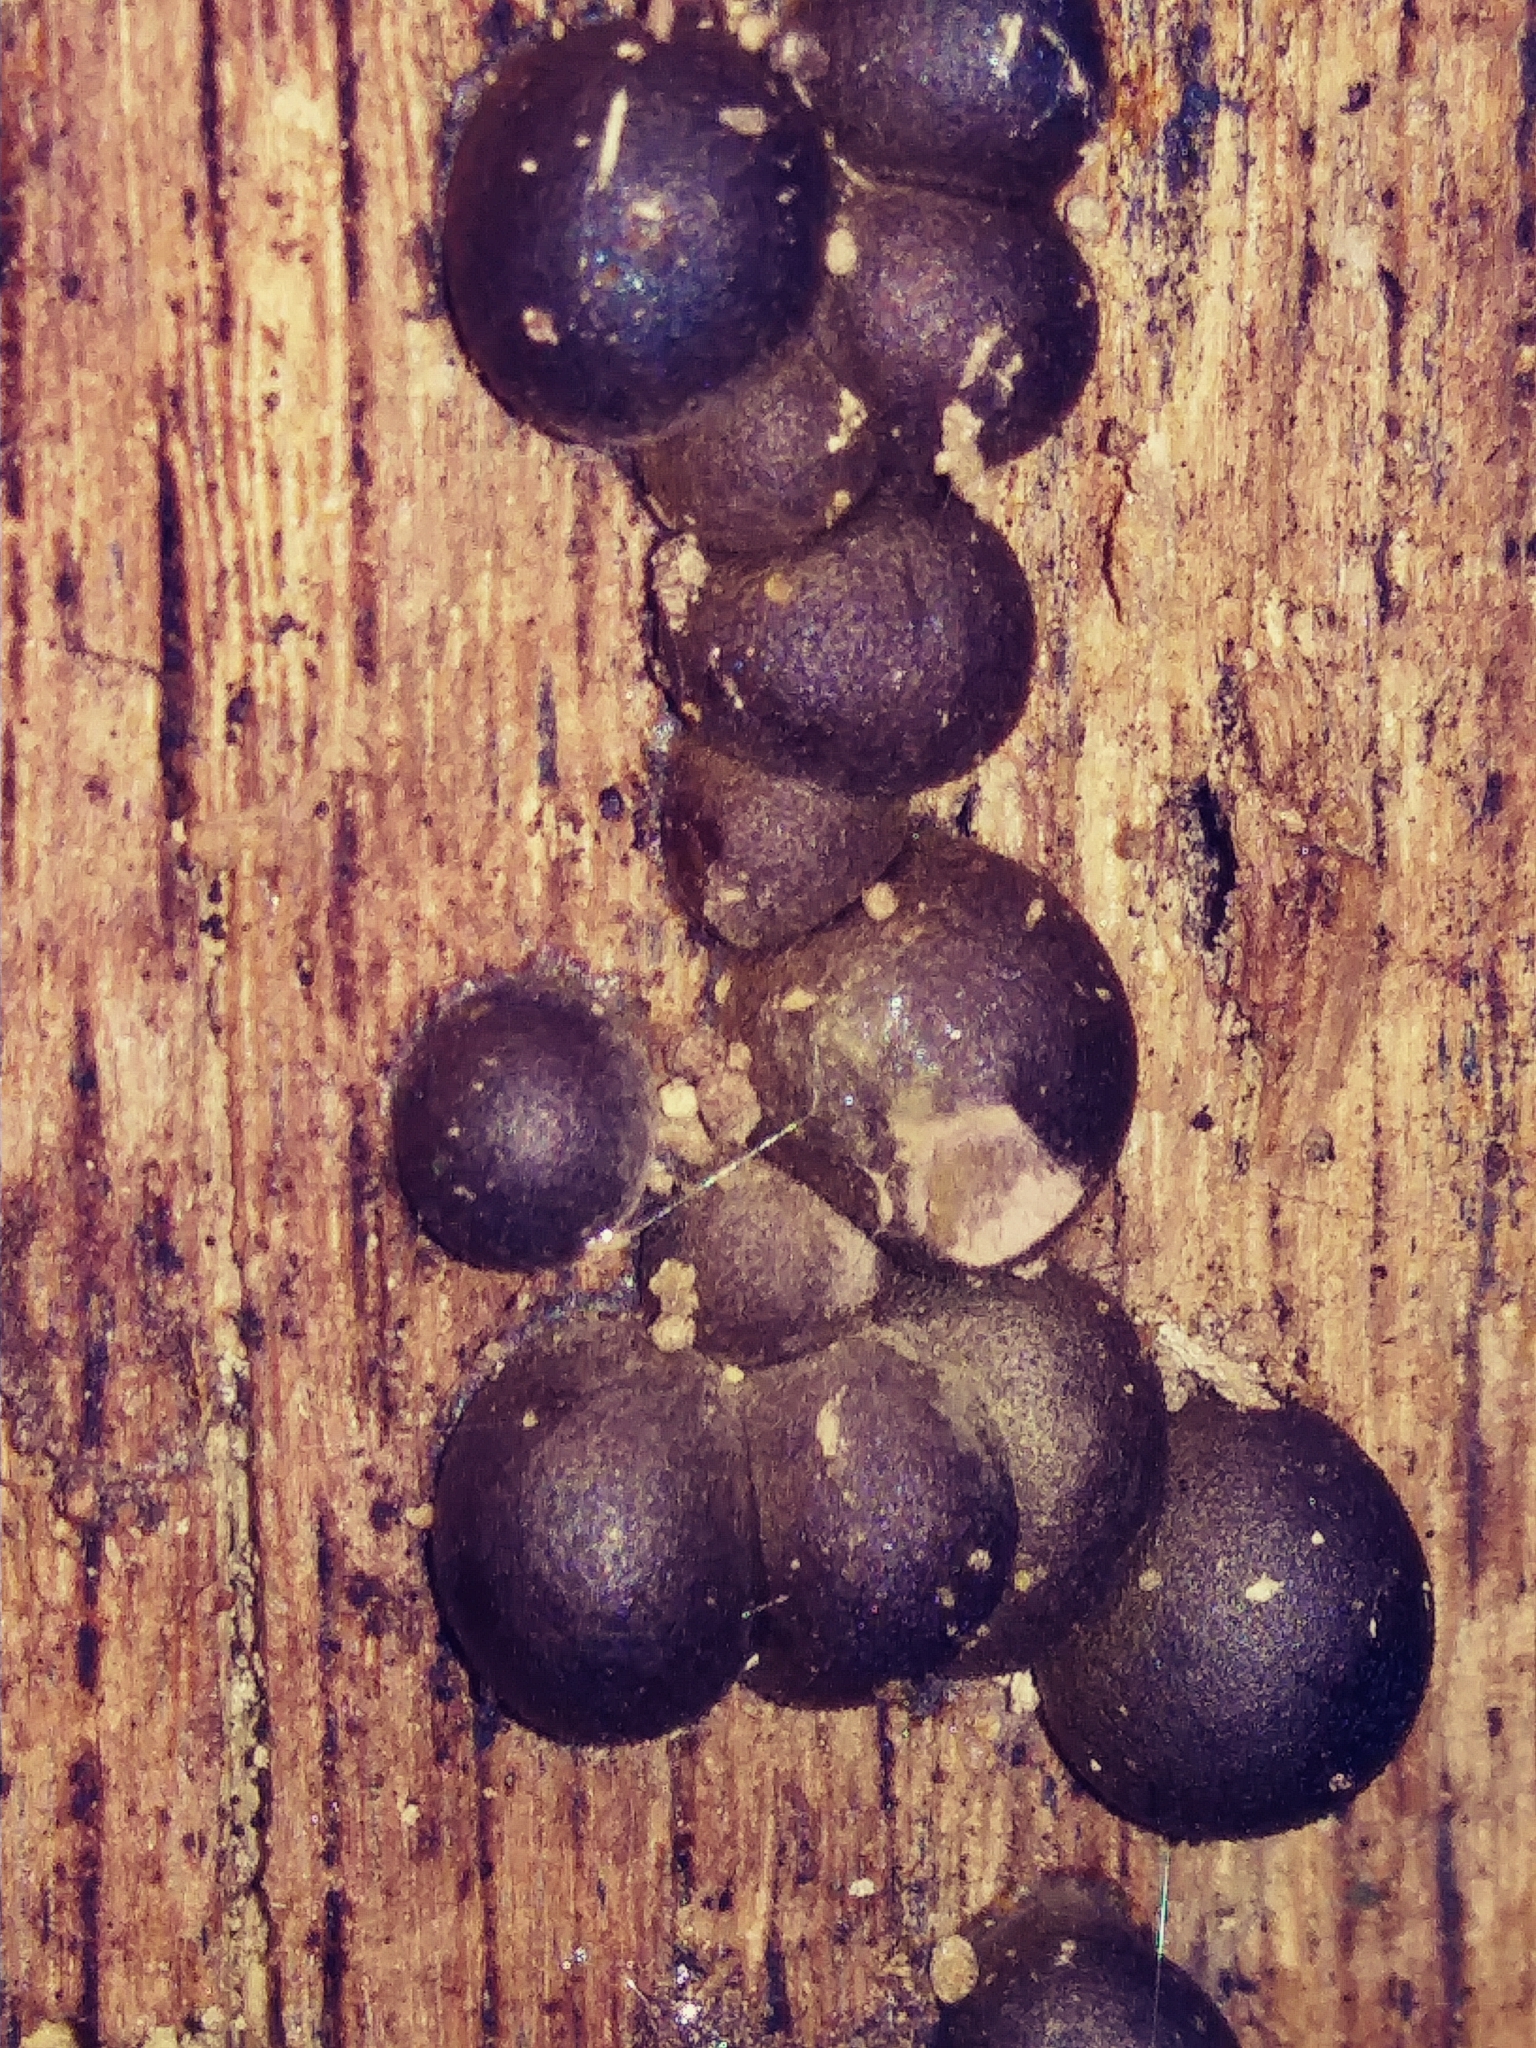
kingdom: Protozoa
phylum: Mycetozoa
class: Myxomycetes
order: Cribrariales
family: Tubiferaceae
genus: Lycogala
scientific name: Lycogala epidendrum
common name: Wolf's milk
